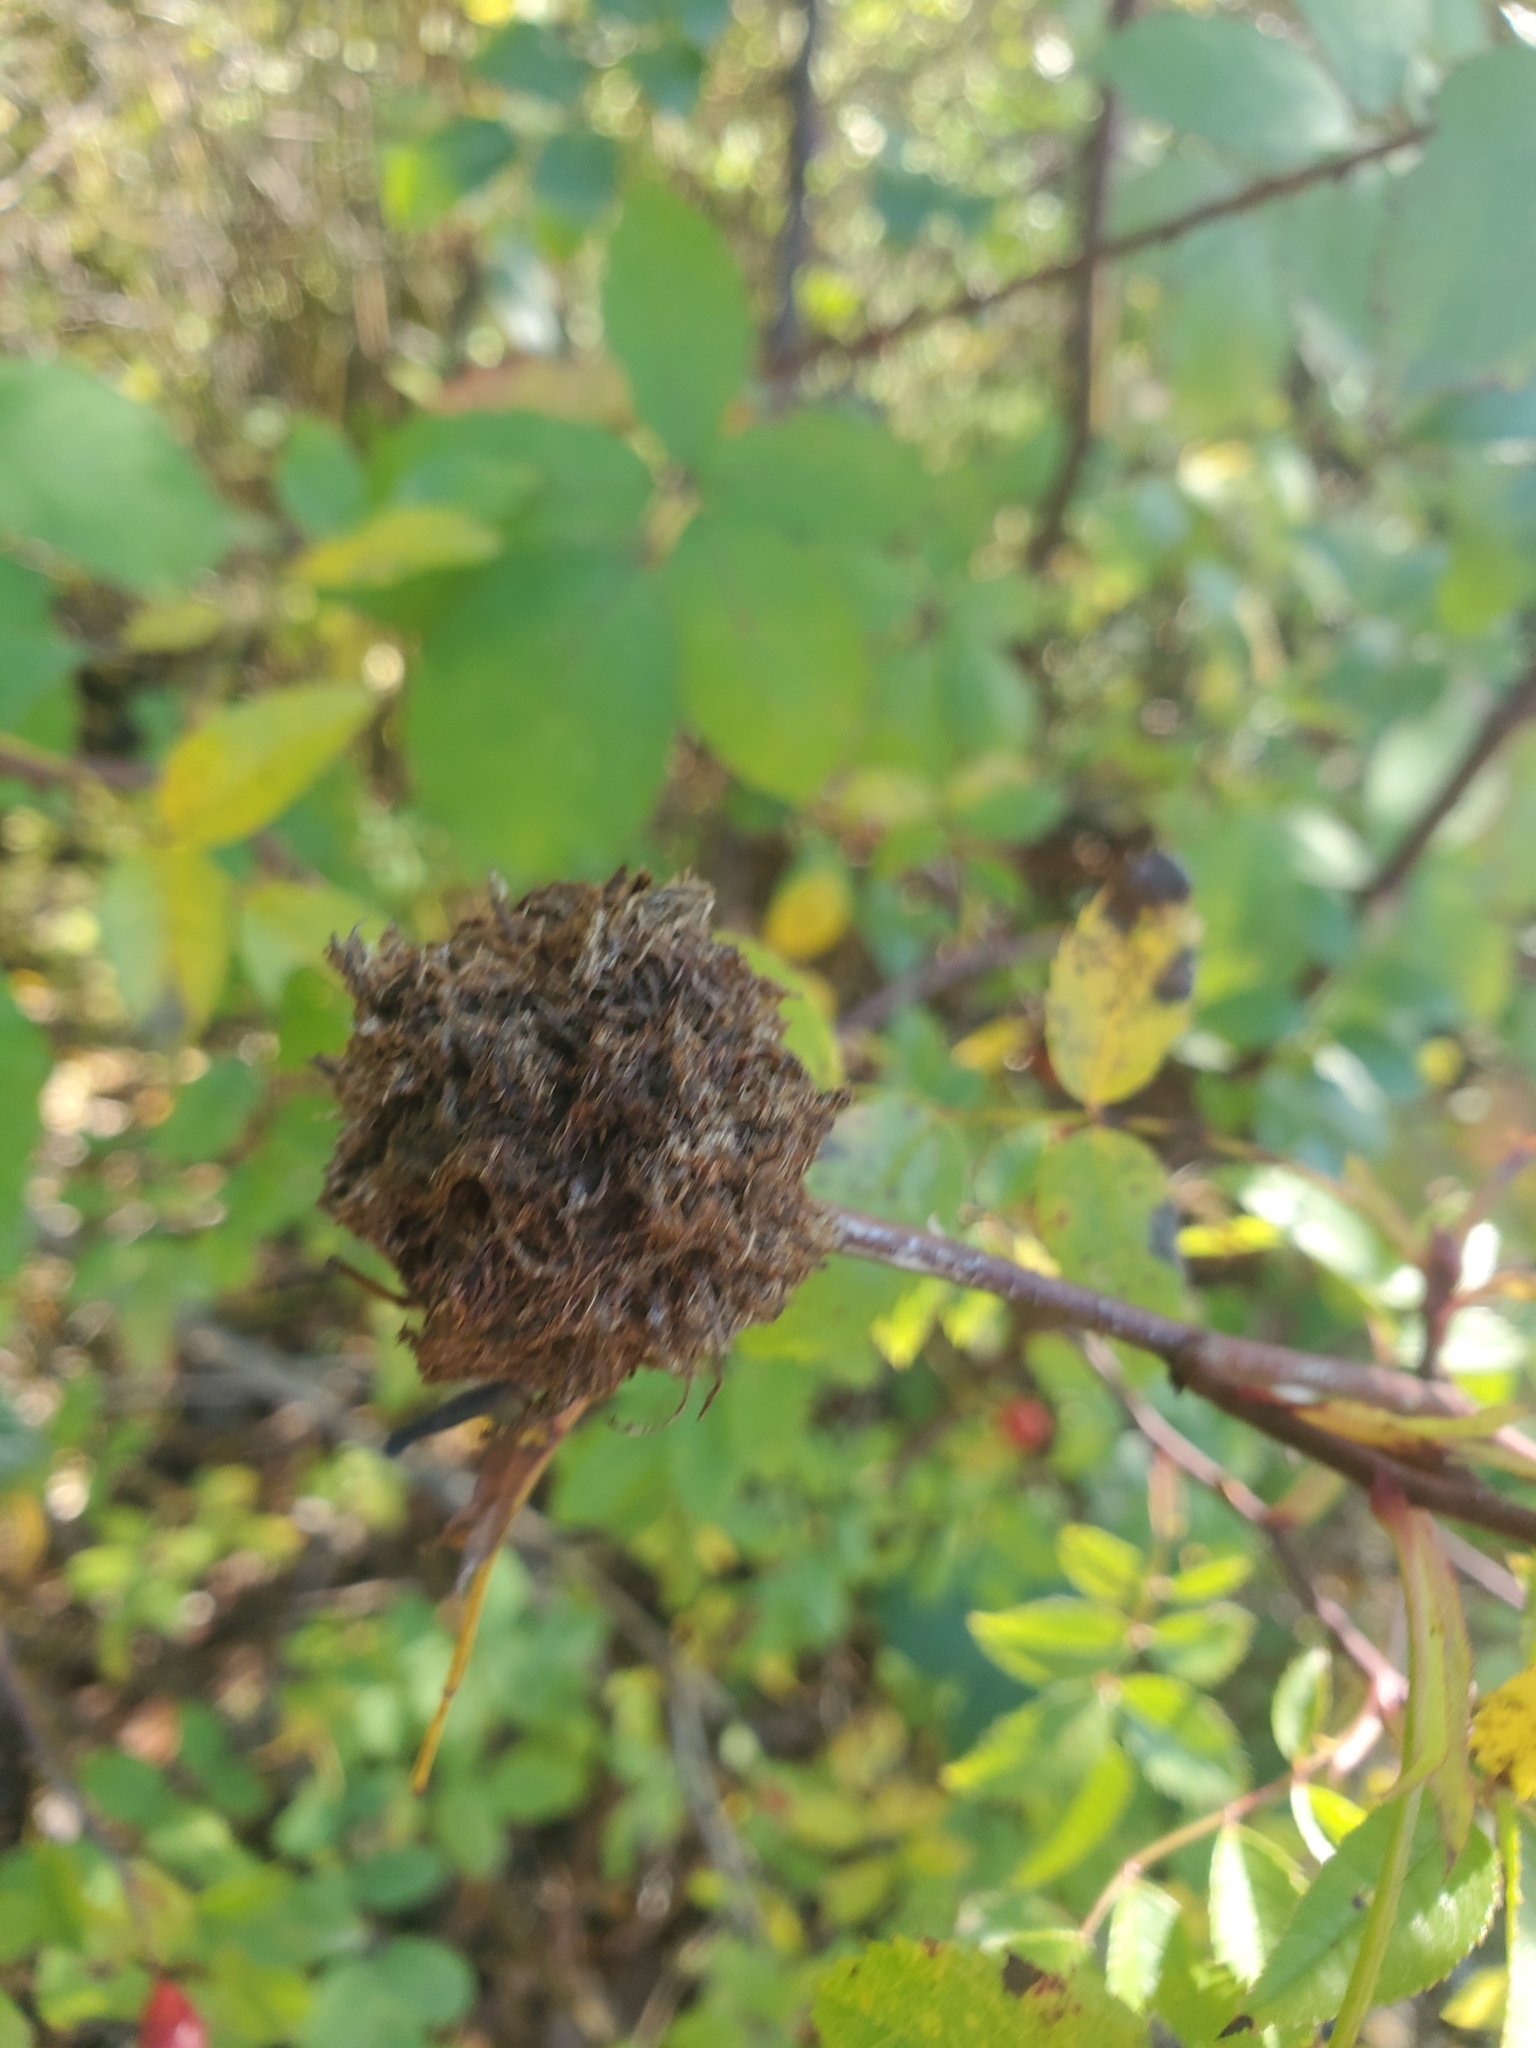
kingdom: Animalia
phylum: Arthropoda
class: Insecta
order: Hymenoptera
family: Cynipidae
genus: Diplolepis
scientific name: Diplolepis rosae
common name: Bedeguar gall
